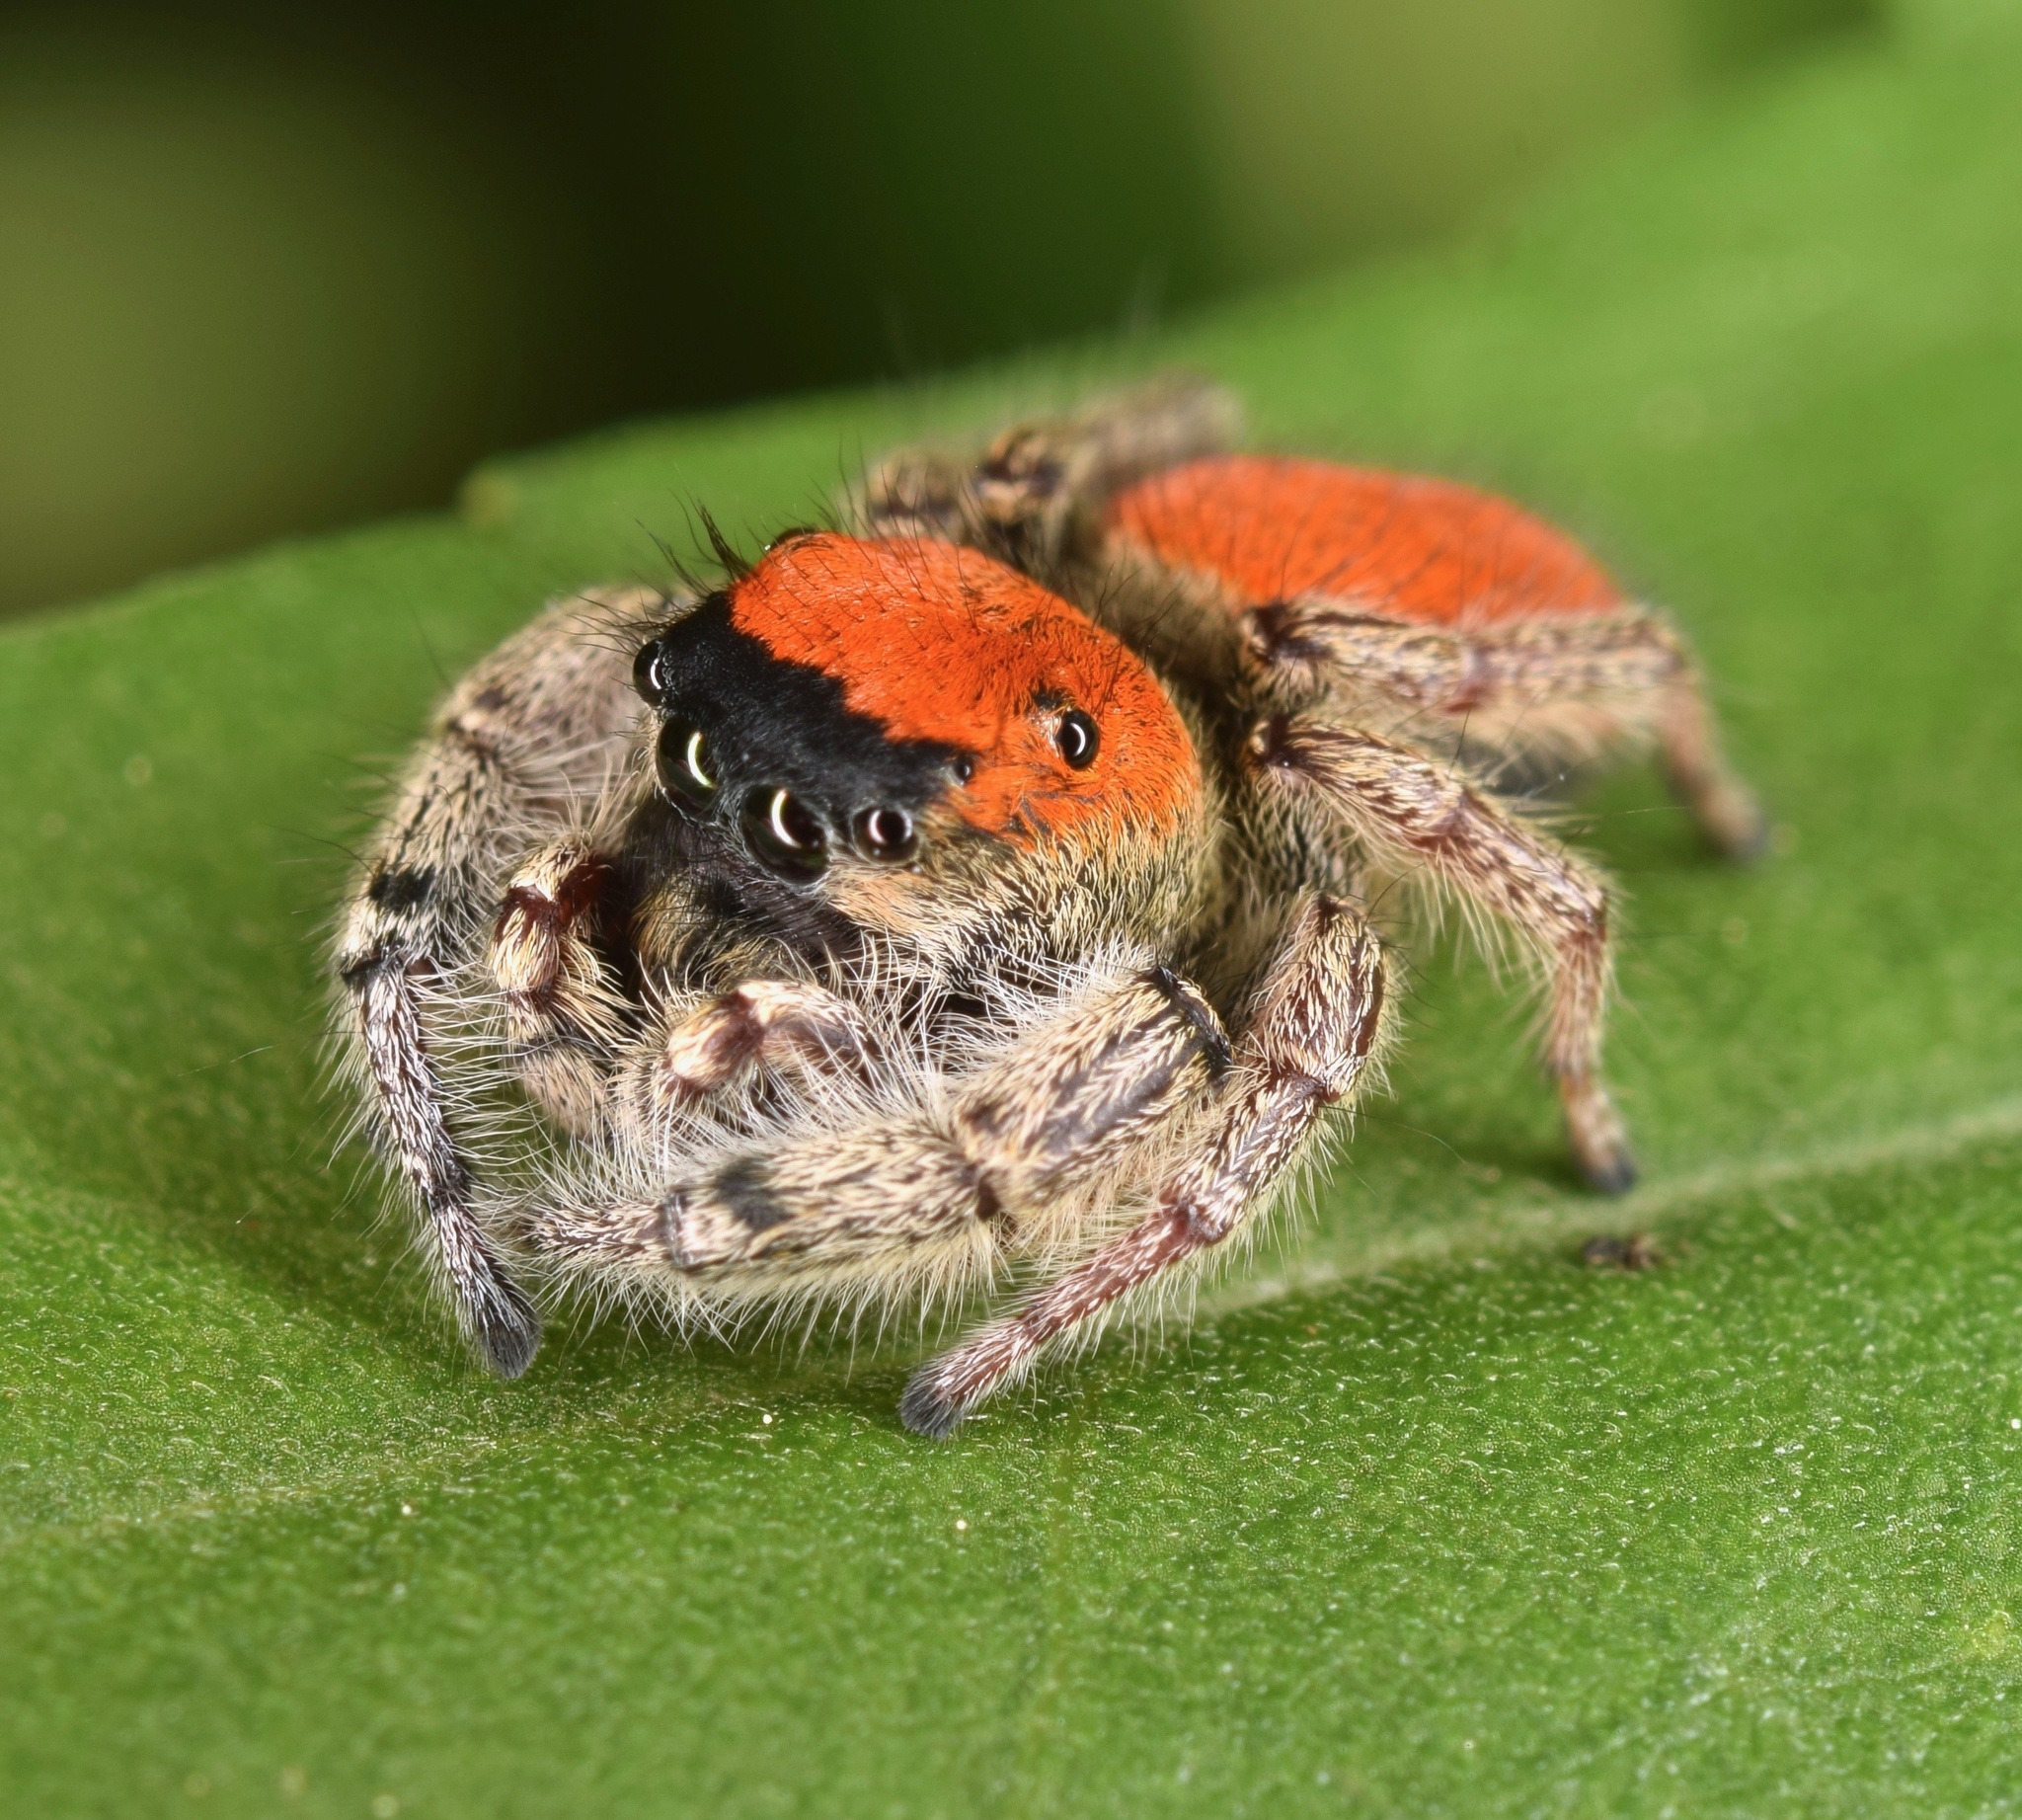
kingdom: Animalia
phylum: Arthropoda
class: Arachnida
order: Araneae
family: Salticidae
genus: Phidippus
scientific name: Phidippus whitmani
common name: Whitman's jumping spider
